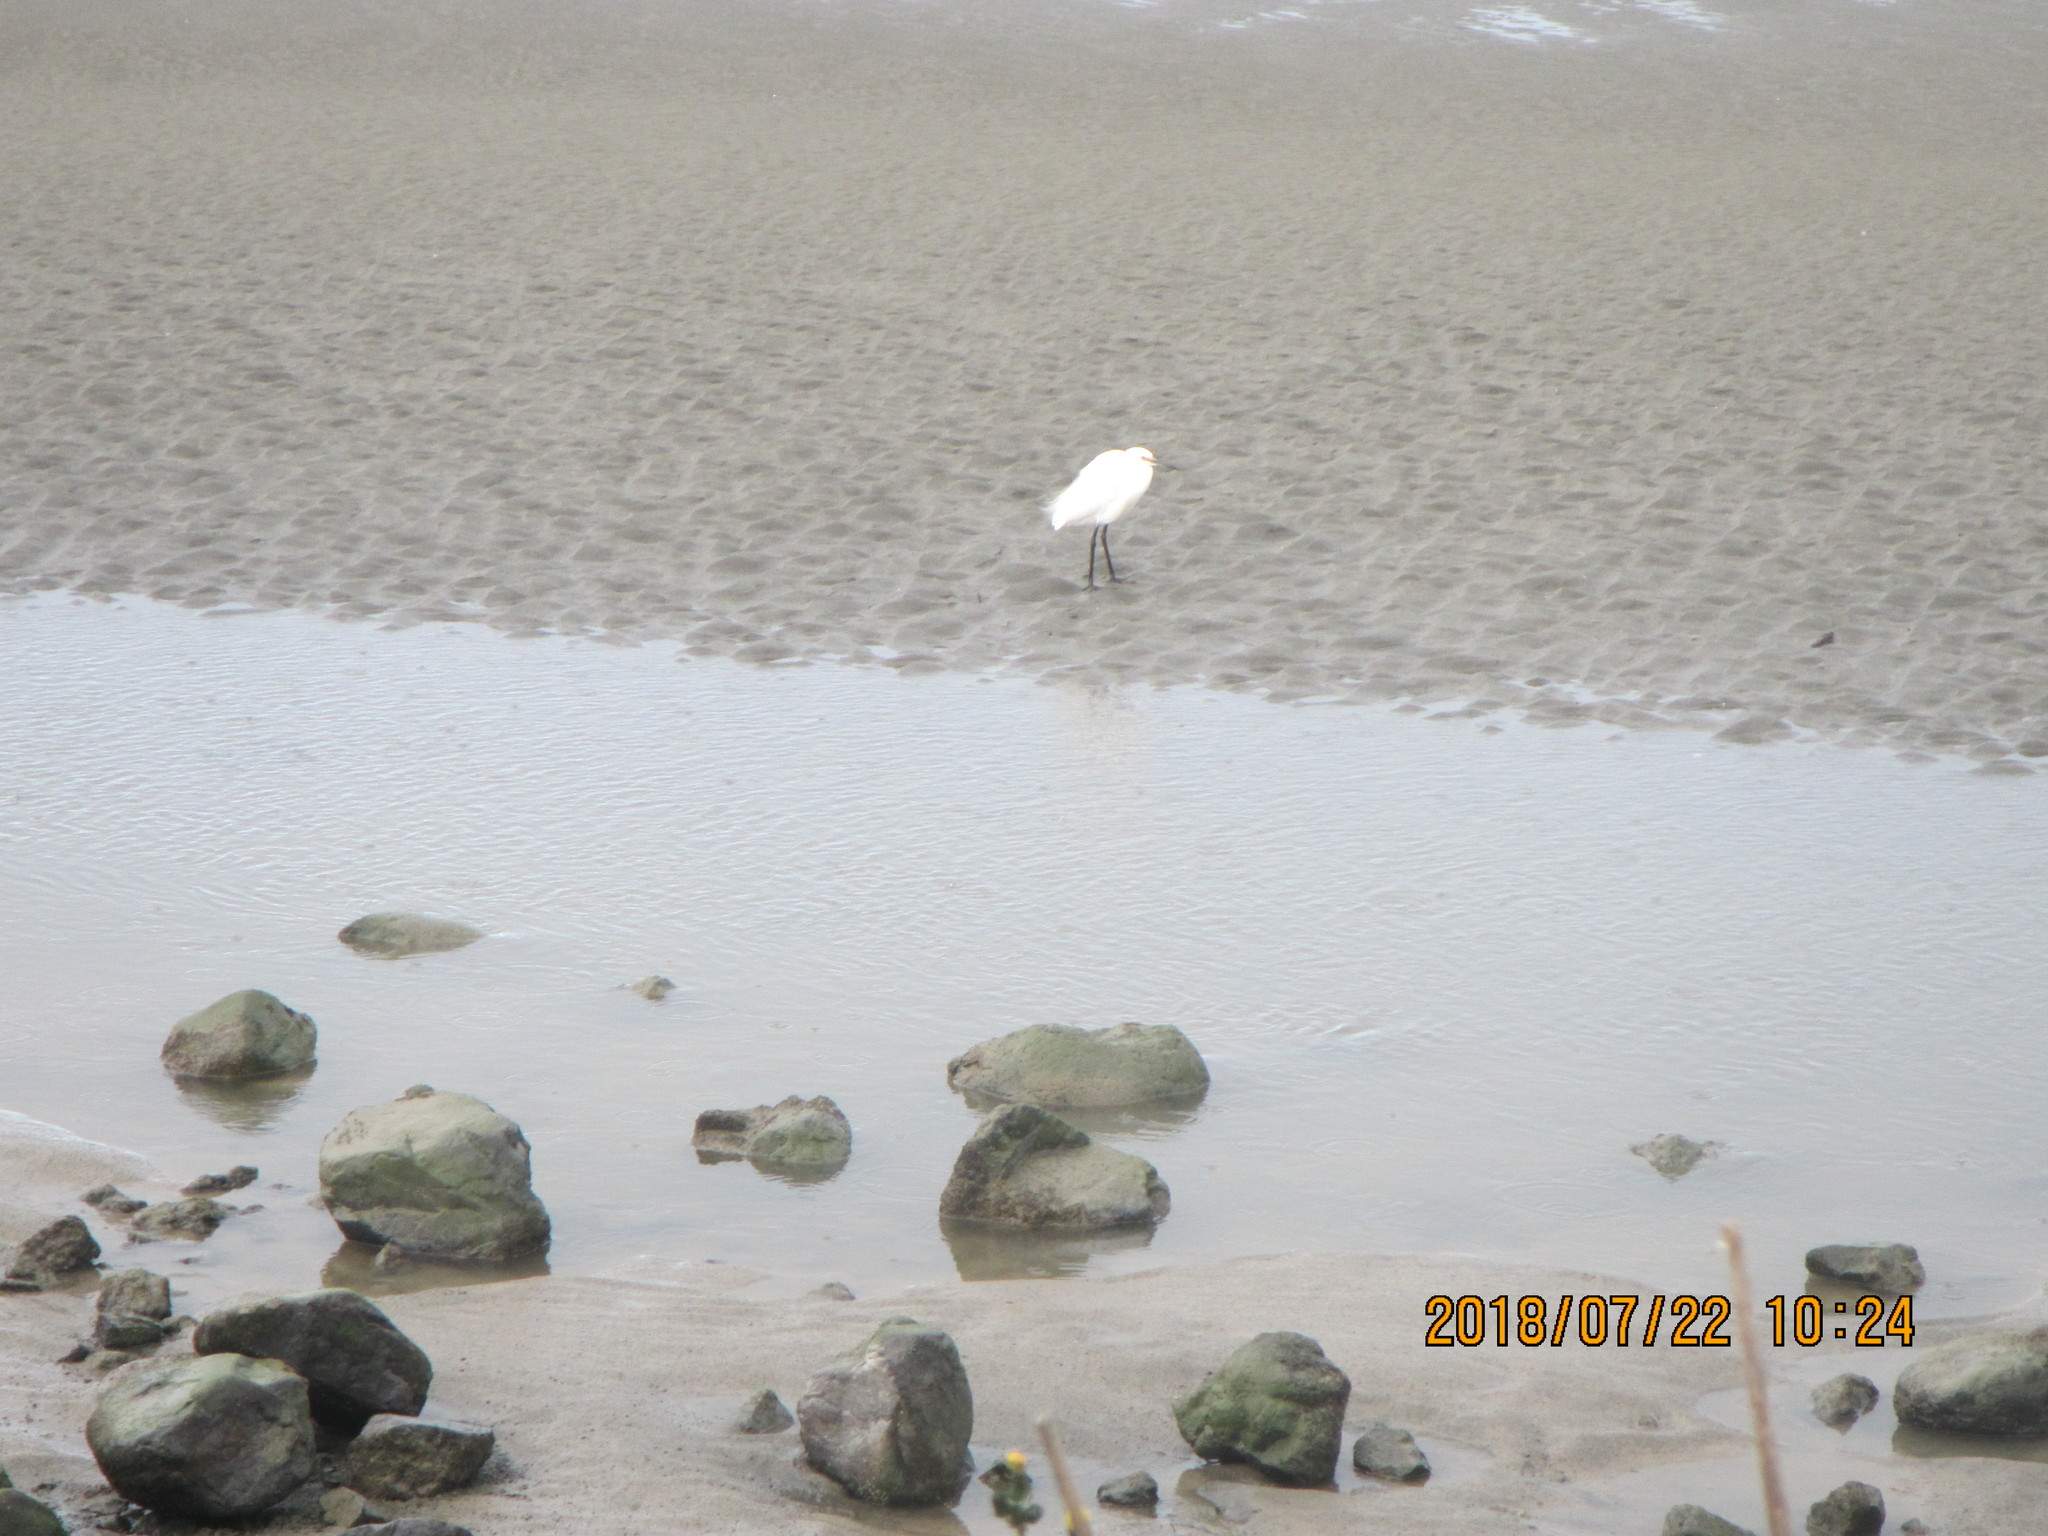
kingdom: Animalia
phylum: Chordata
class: Aves
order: Pelecaniformes
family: Ardeidae
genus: Egretta
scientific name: Egretta garzetta
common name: Little egret
